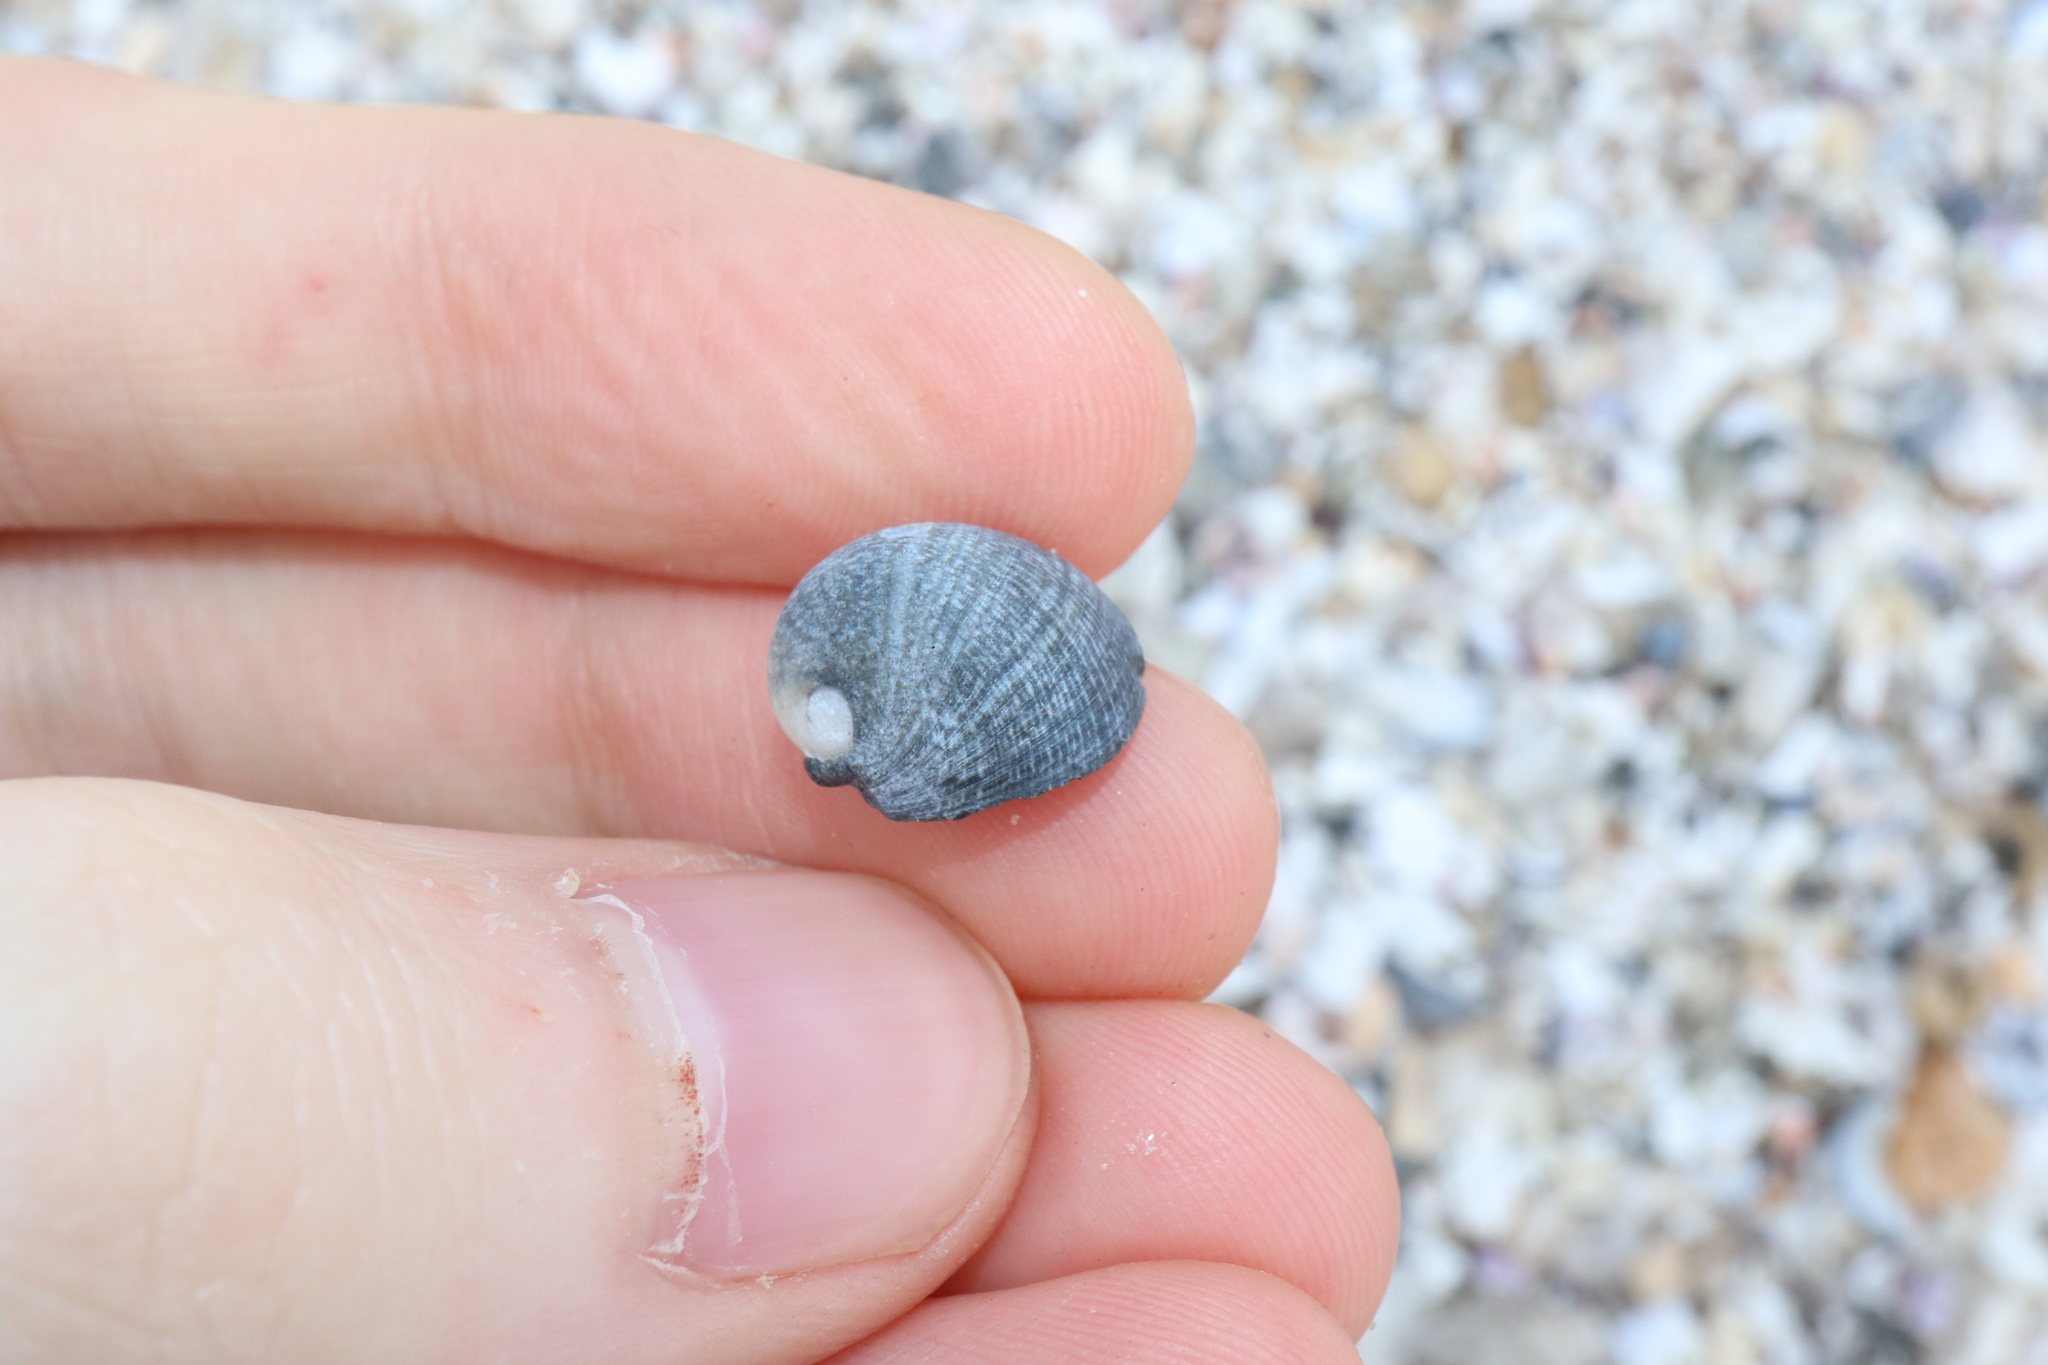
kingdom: Animalia
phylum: Mollusca
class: Gastropoda
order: Cycloneritida
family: Neritidae
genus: Nerita
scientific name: Nerita atramentosa
